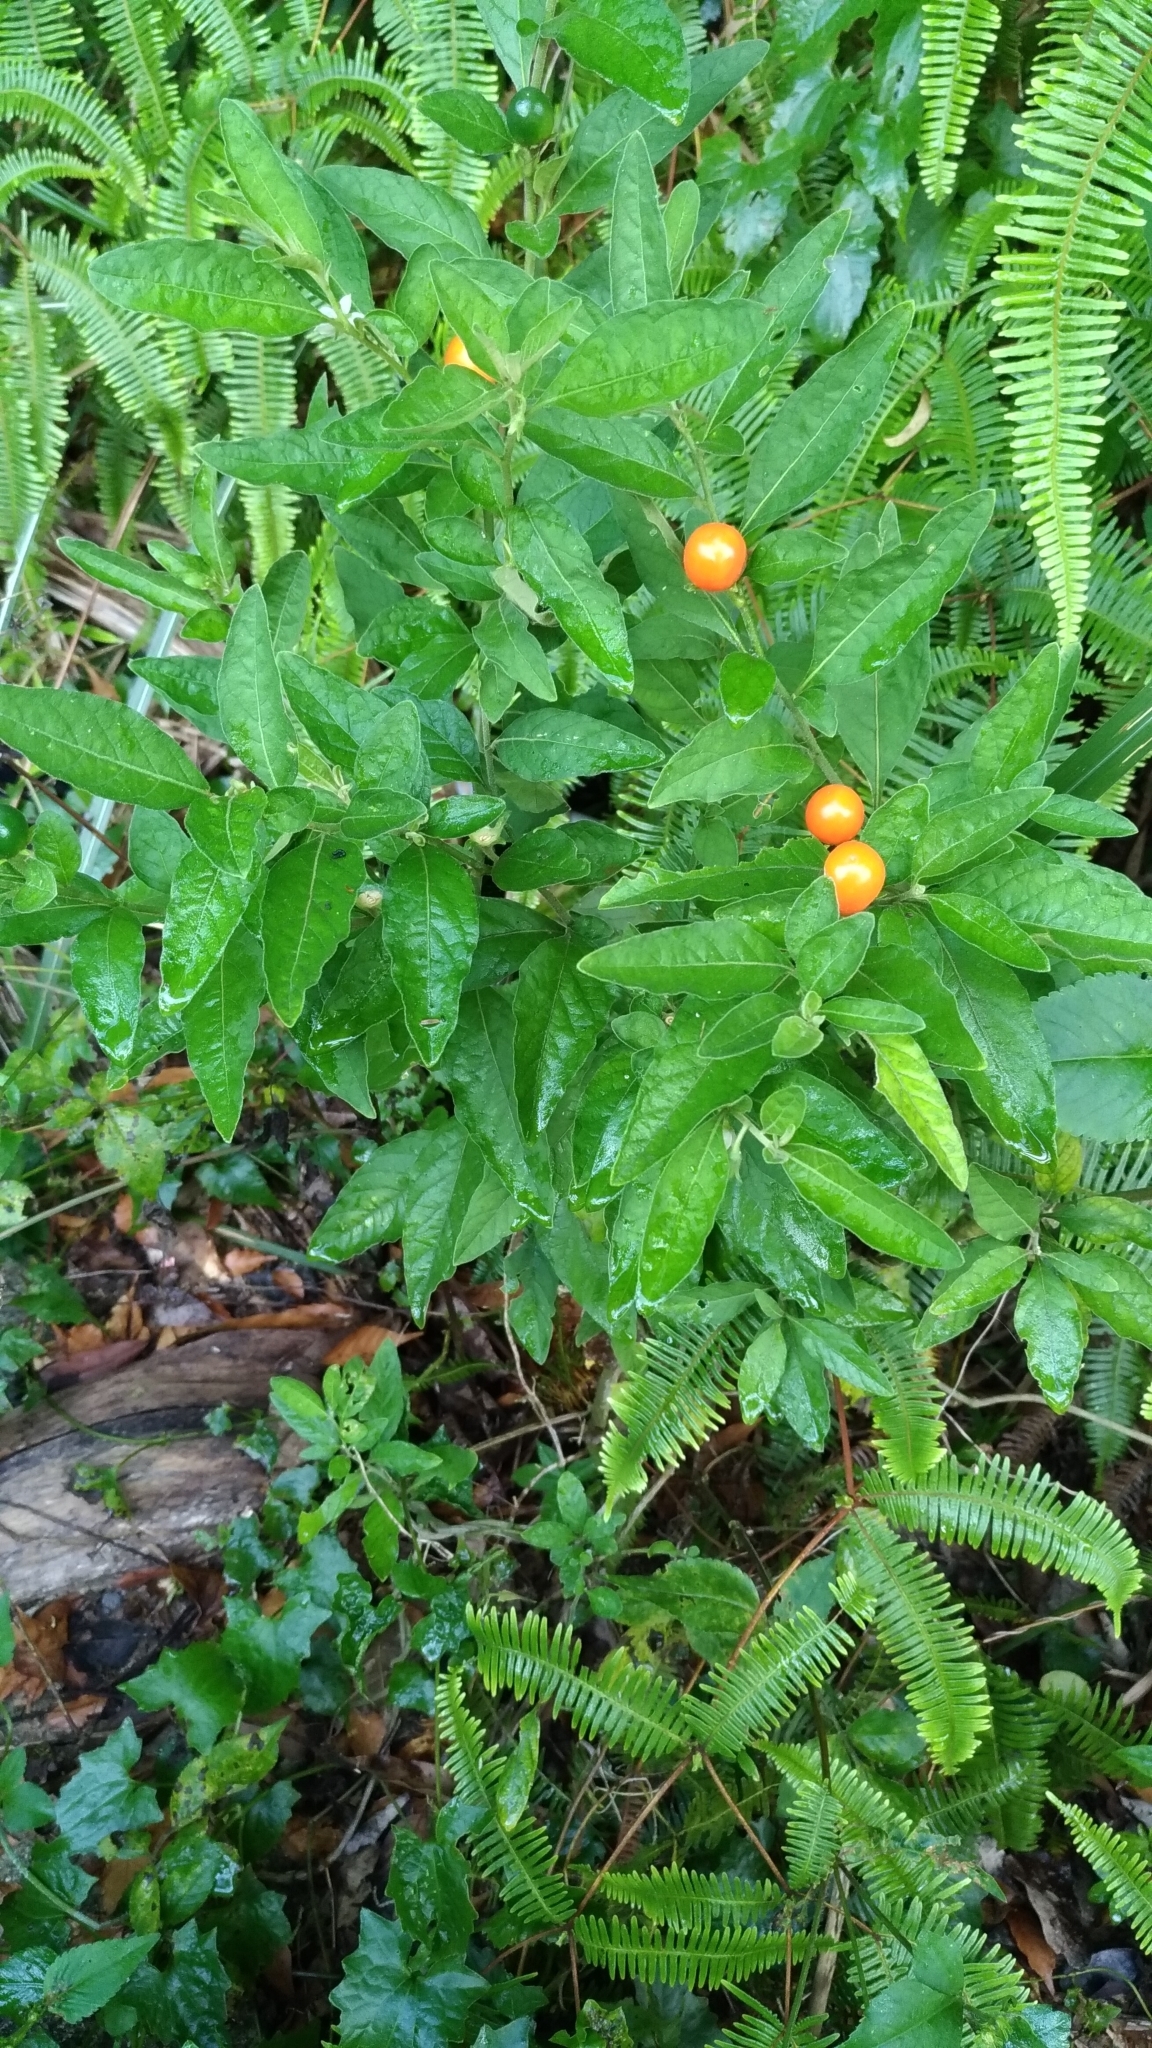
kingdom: Plantae
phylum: Tracheophyta
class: Magnoliopsida
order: Solanales
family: Solanaceae
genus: Solanum
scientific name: Solanum pseudocapsicum
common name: Jerusalem cherry
